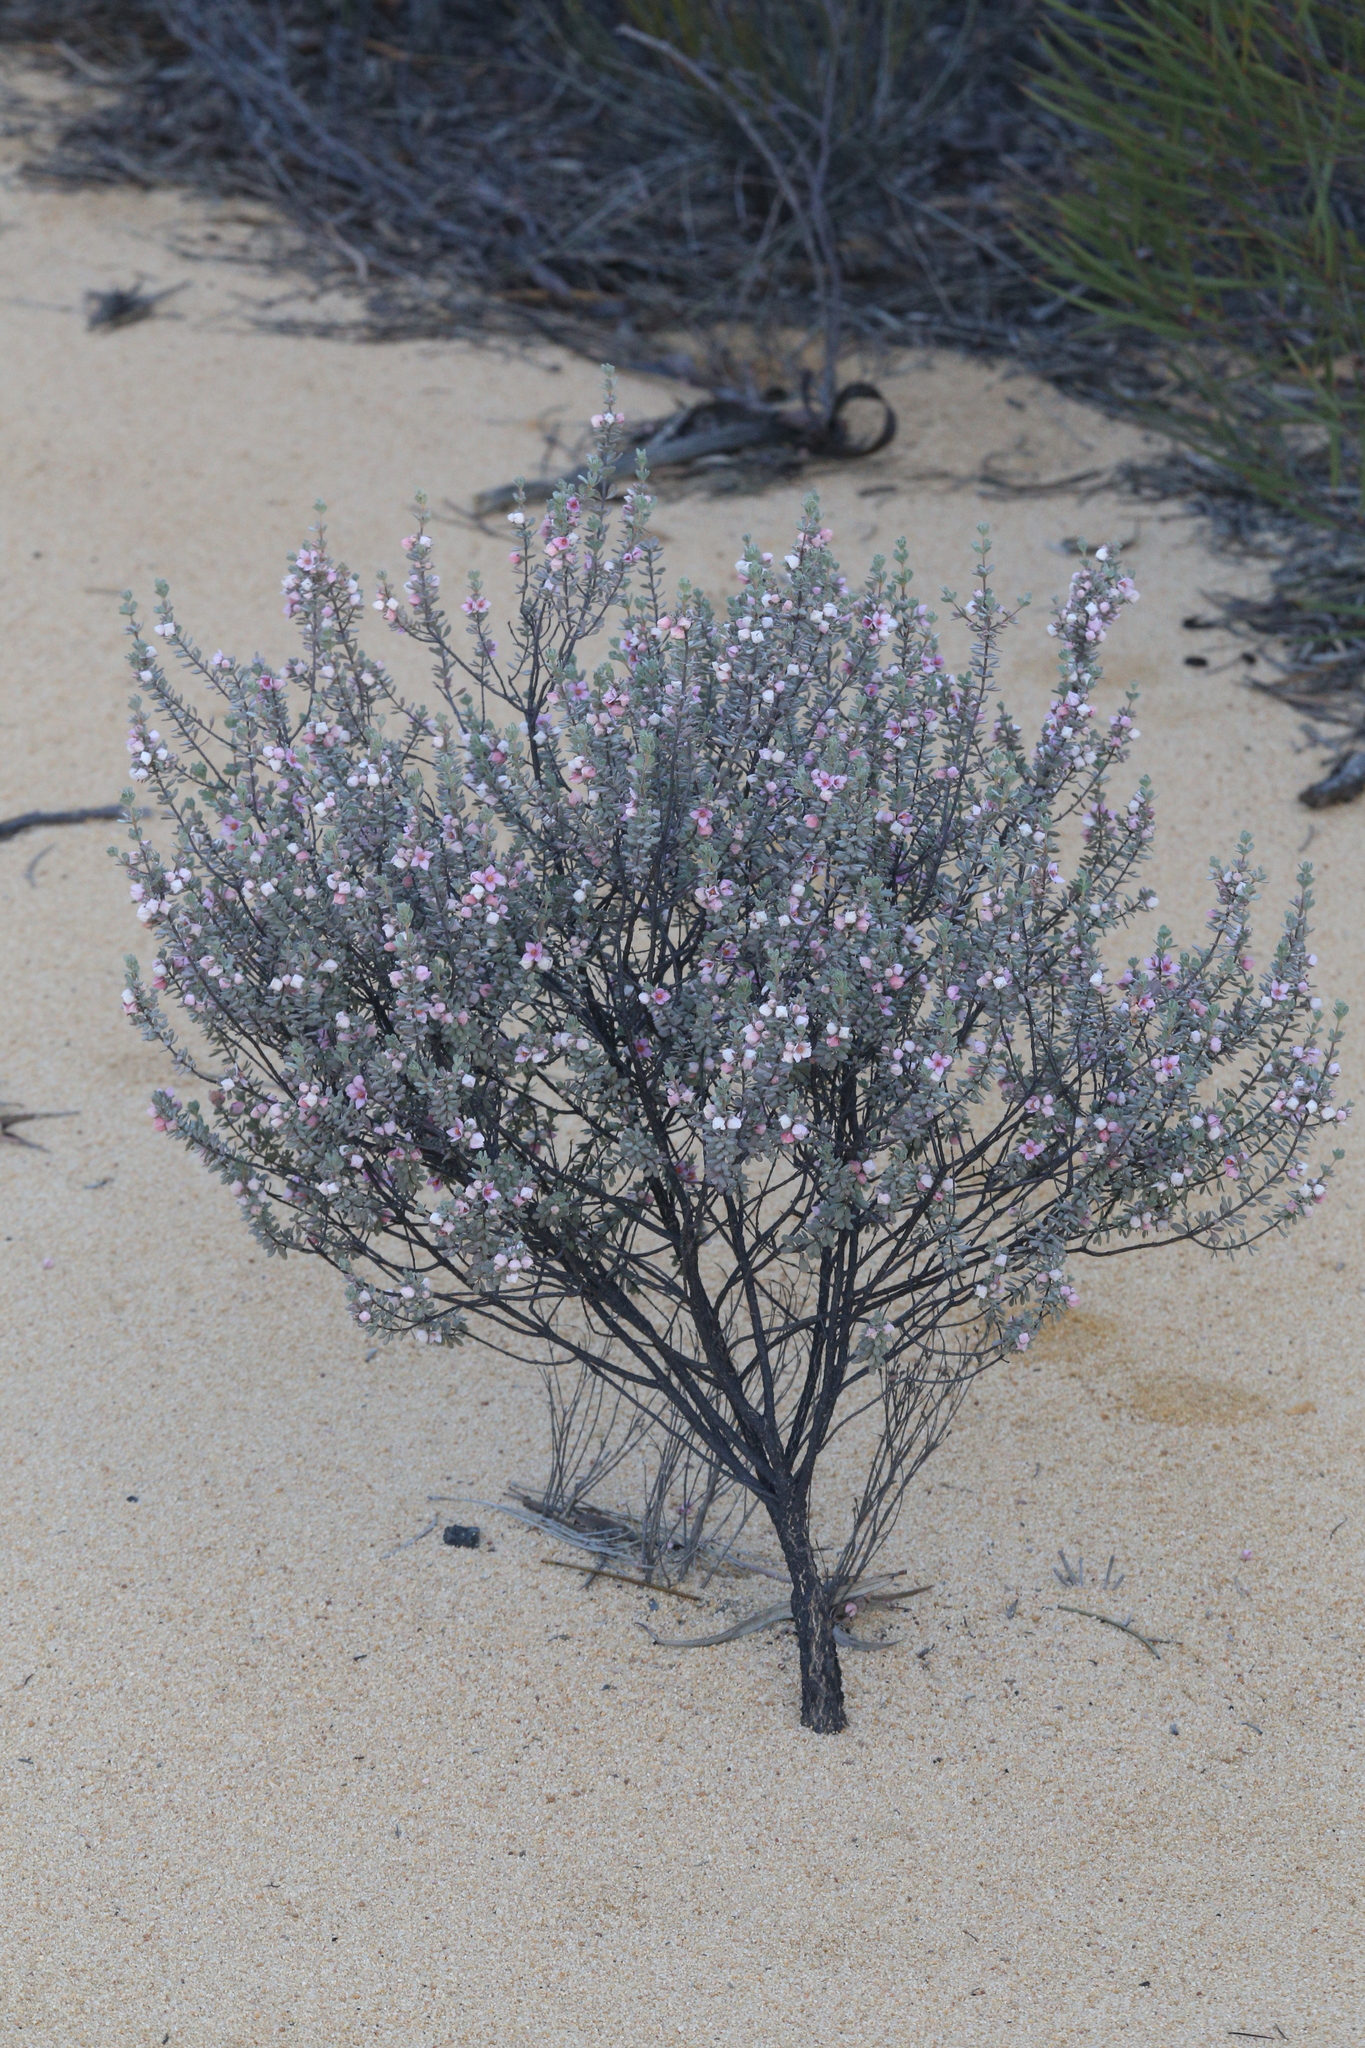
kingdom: Plantae
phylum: Tracheophyta
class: Magnoliopsida
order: Sapindales
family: Rutaceae
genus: Boronia
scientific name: Boronia ternata
